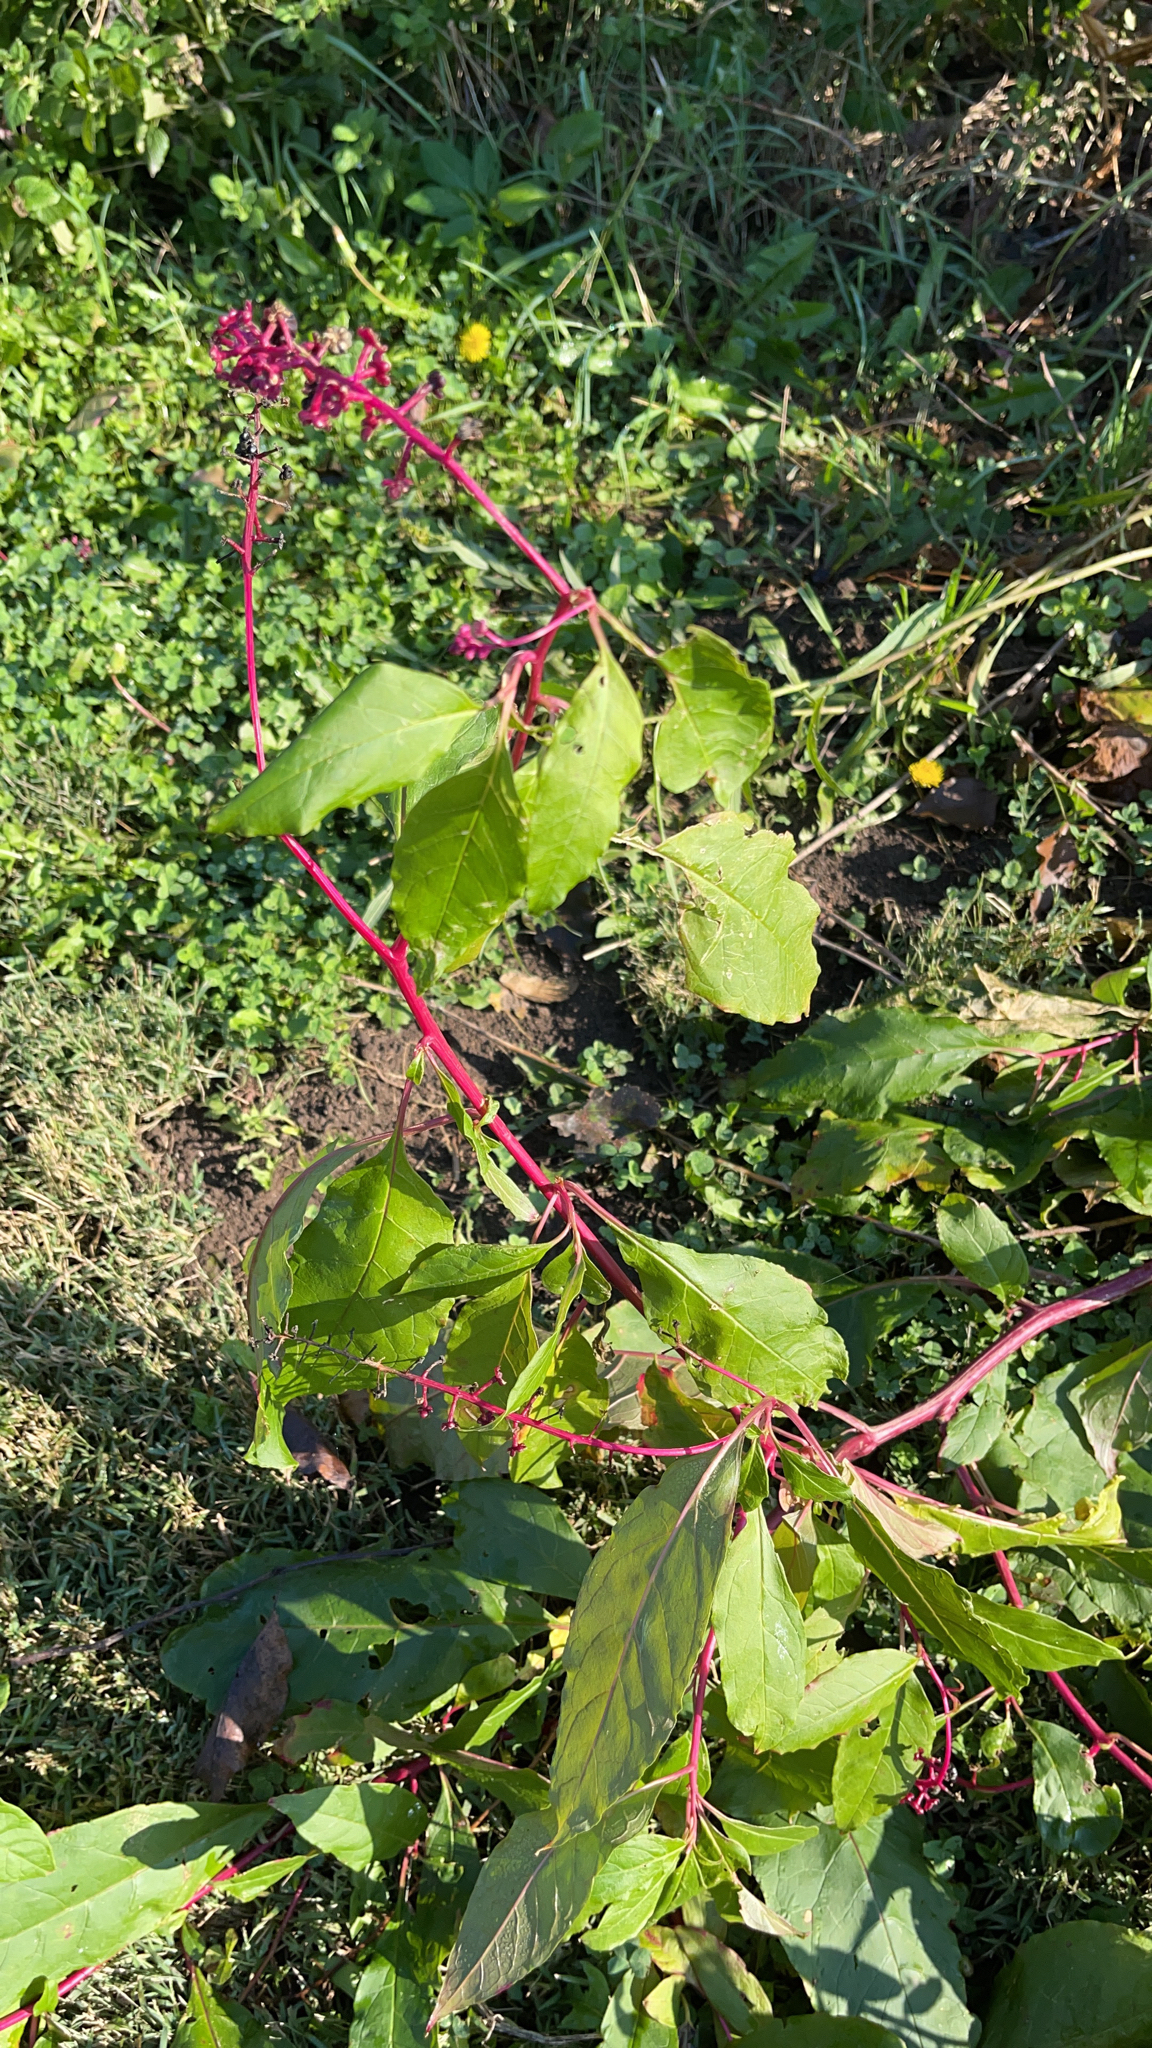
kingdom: Plantae
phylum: Tracheophyta
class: Magnoliopsida
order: Caryophyllales
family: Phytolaccaceae
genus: Phytolacca
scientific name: Phytolacca americana
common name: American pokeweed
